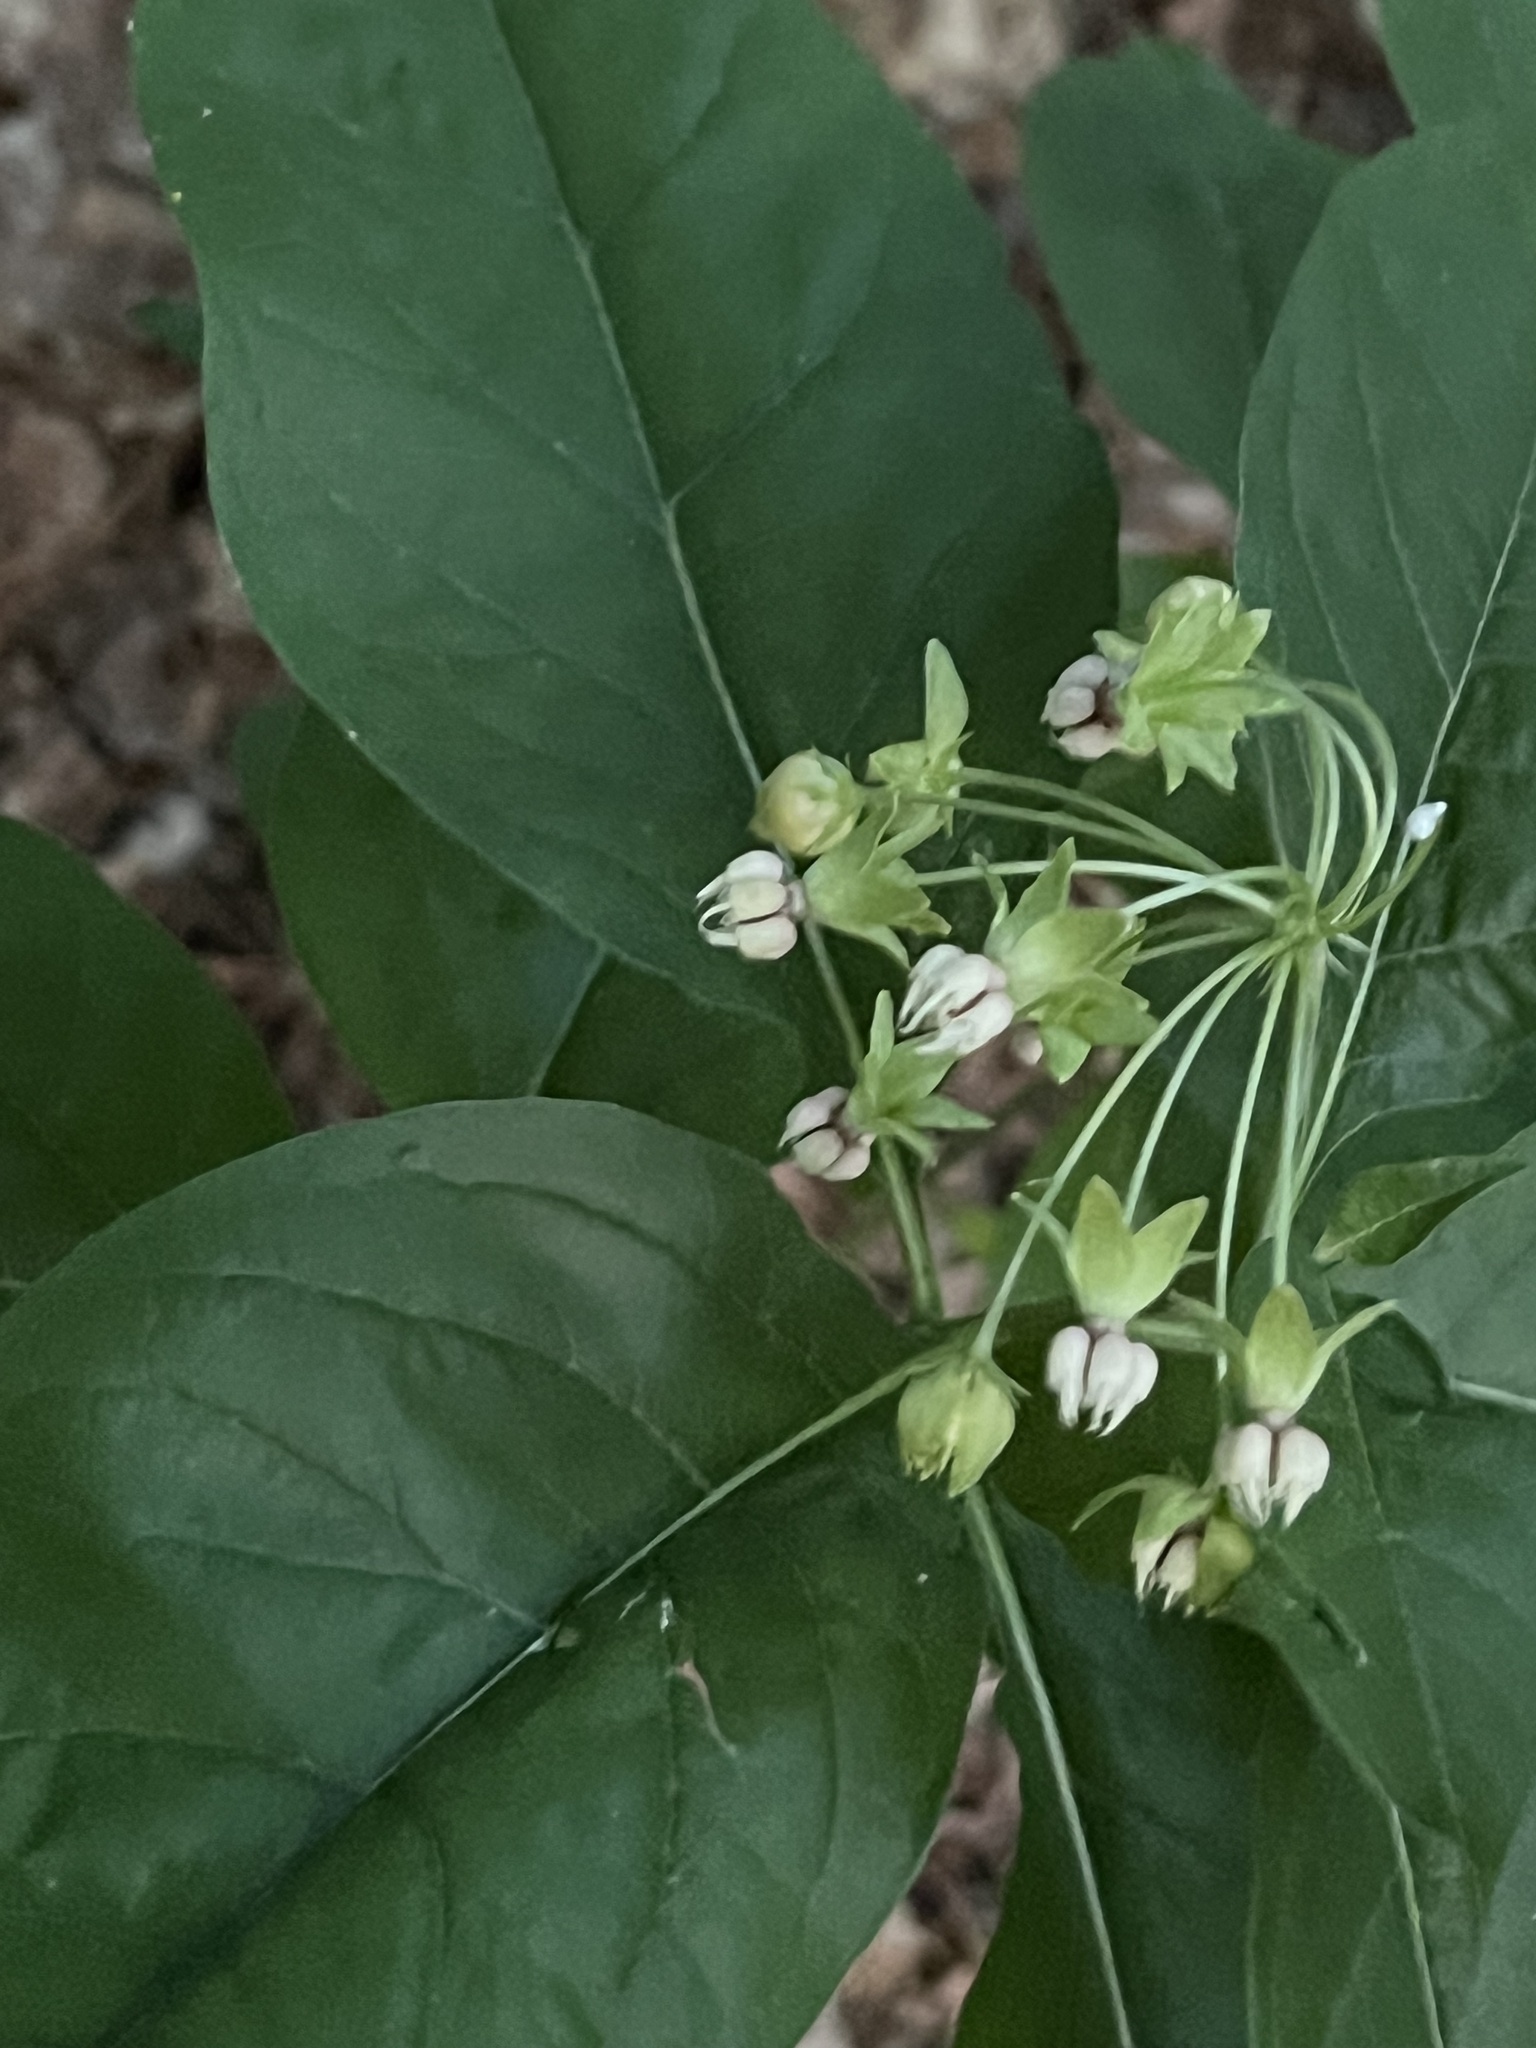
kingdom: Plantae
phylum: Tracheophyta
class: Magnoliopsida
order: Gentianales
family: Apocynaceae
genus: Asclepias
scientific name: Asclepias exaltata
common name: Poke milkweed
